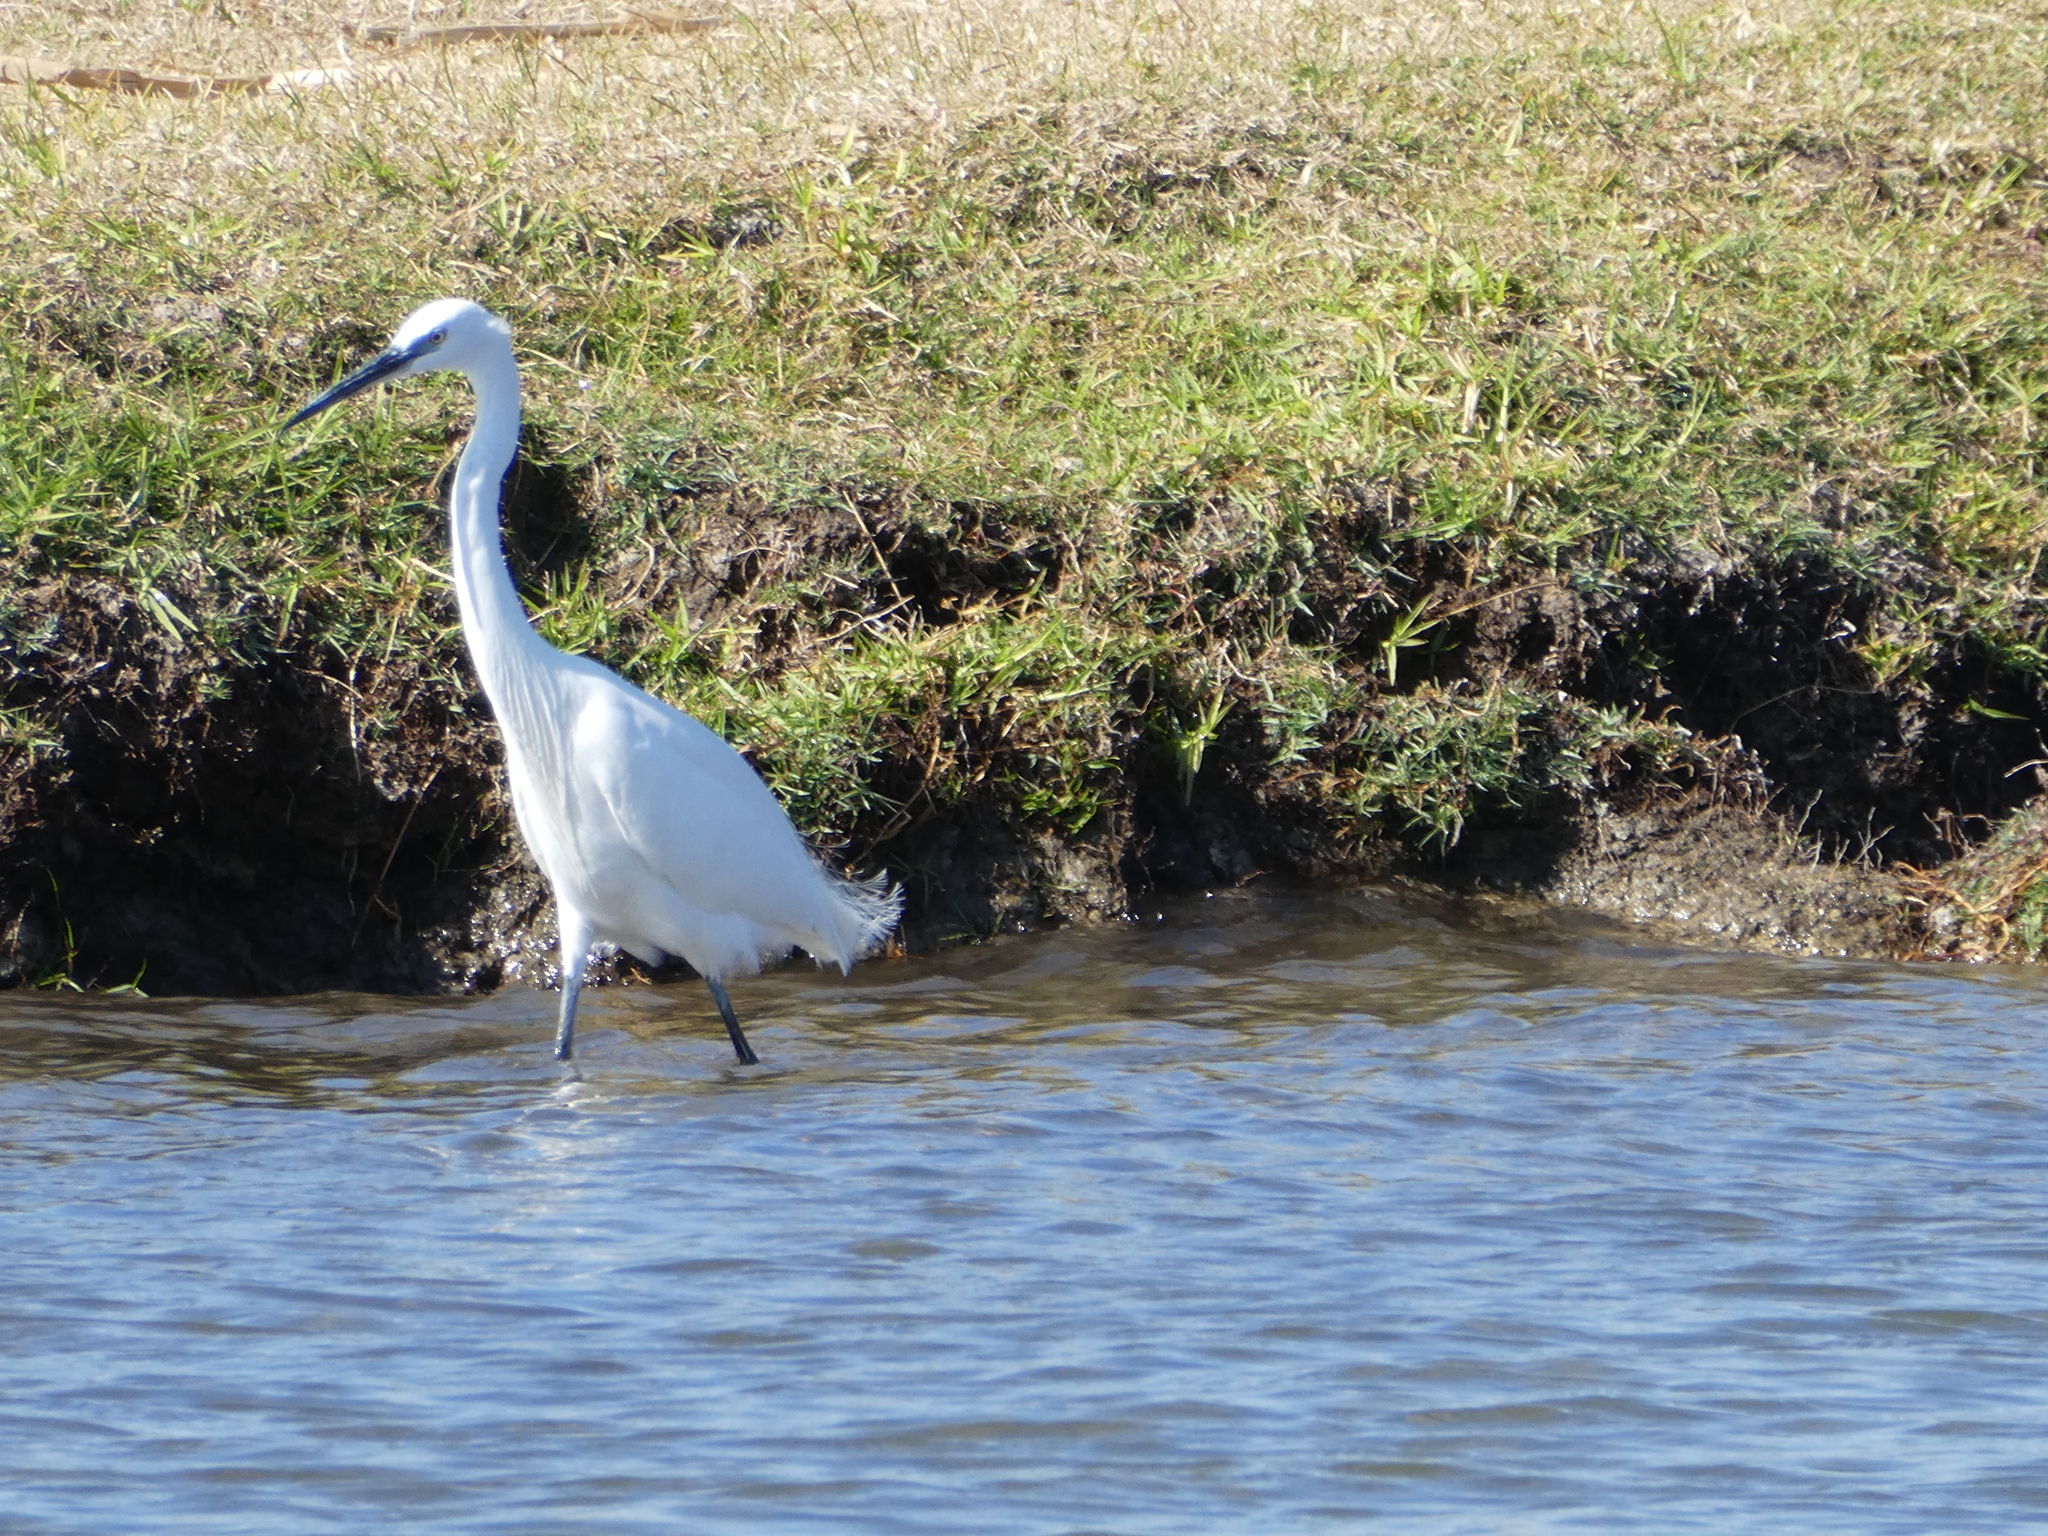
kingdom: Animalia
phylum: Chordata
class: Aves
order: Pelecaniformes
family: Ardeidae
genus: Egretta
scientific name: Egretta garzetta
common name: Little egret
